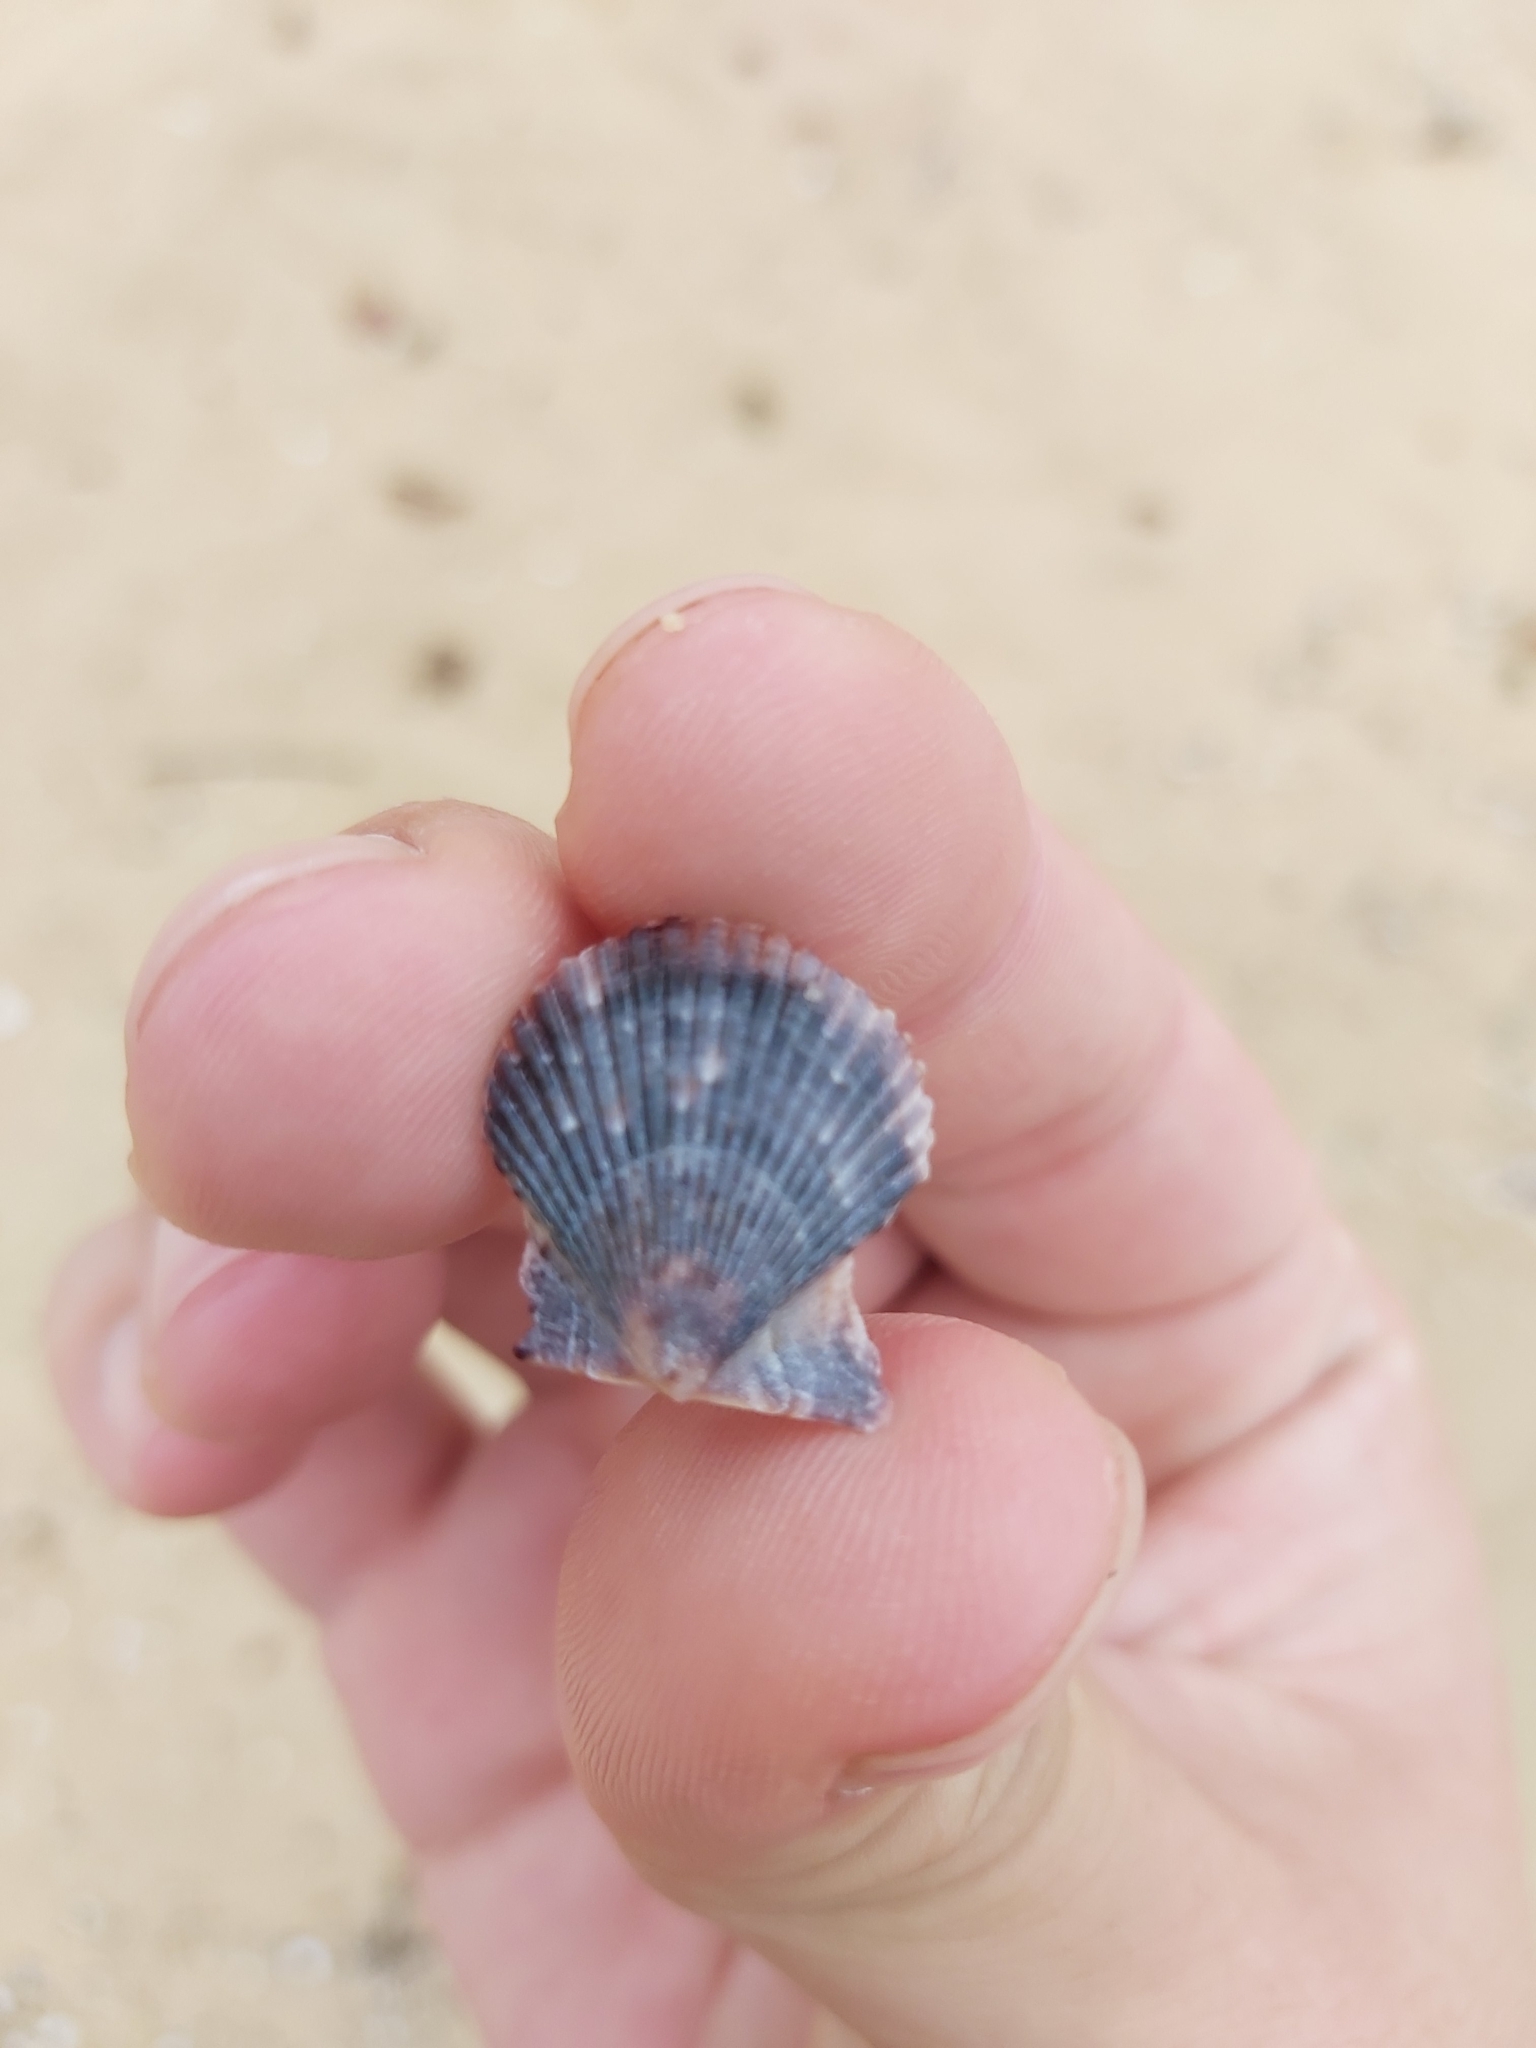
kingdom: Animalia
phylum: Mollusca
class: Bivalvia
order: Pectinida
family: Pectinidae
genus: Volachlamys
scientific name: Volachlamys singaporina
